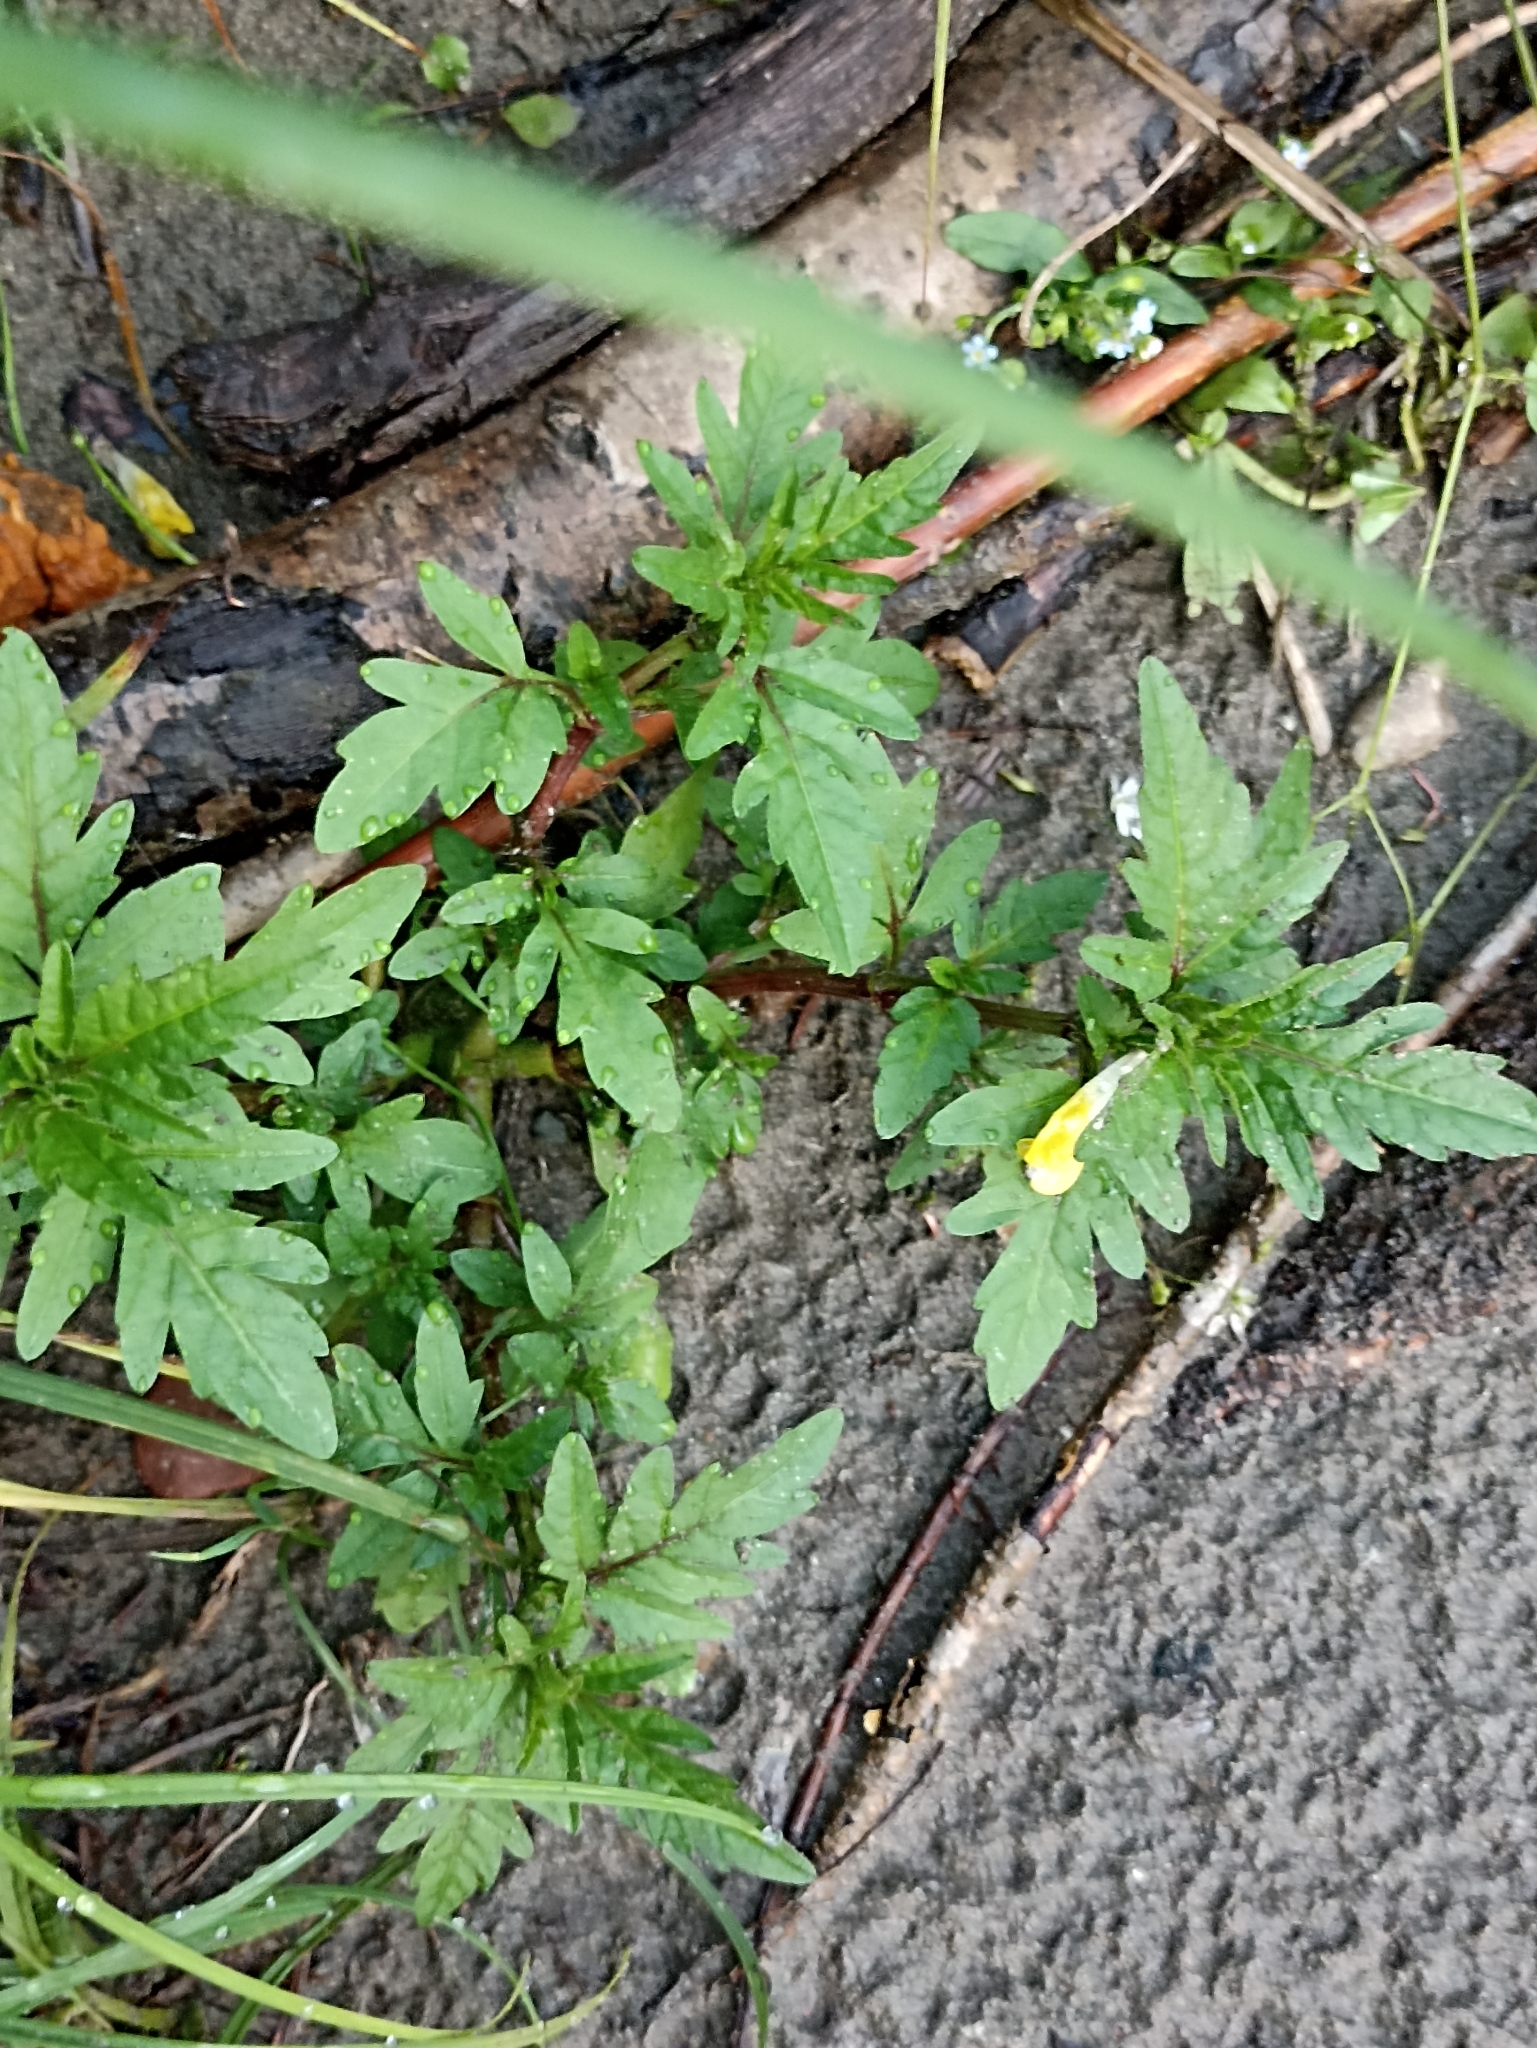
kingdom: Plantae
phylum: Tracheophyta
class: Magnoliopsida
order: Asterales
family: Asteraceae
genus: Bidens
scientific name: Bidens tripartita
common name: Trifid bur-marigold
